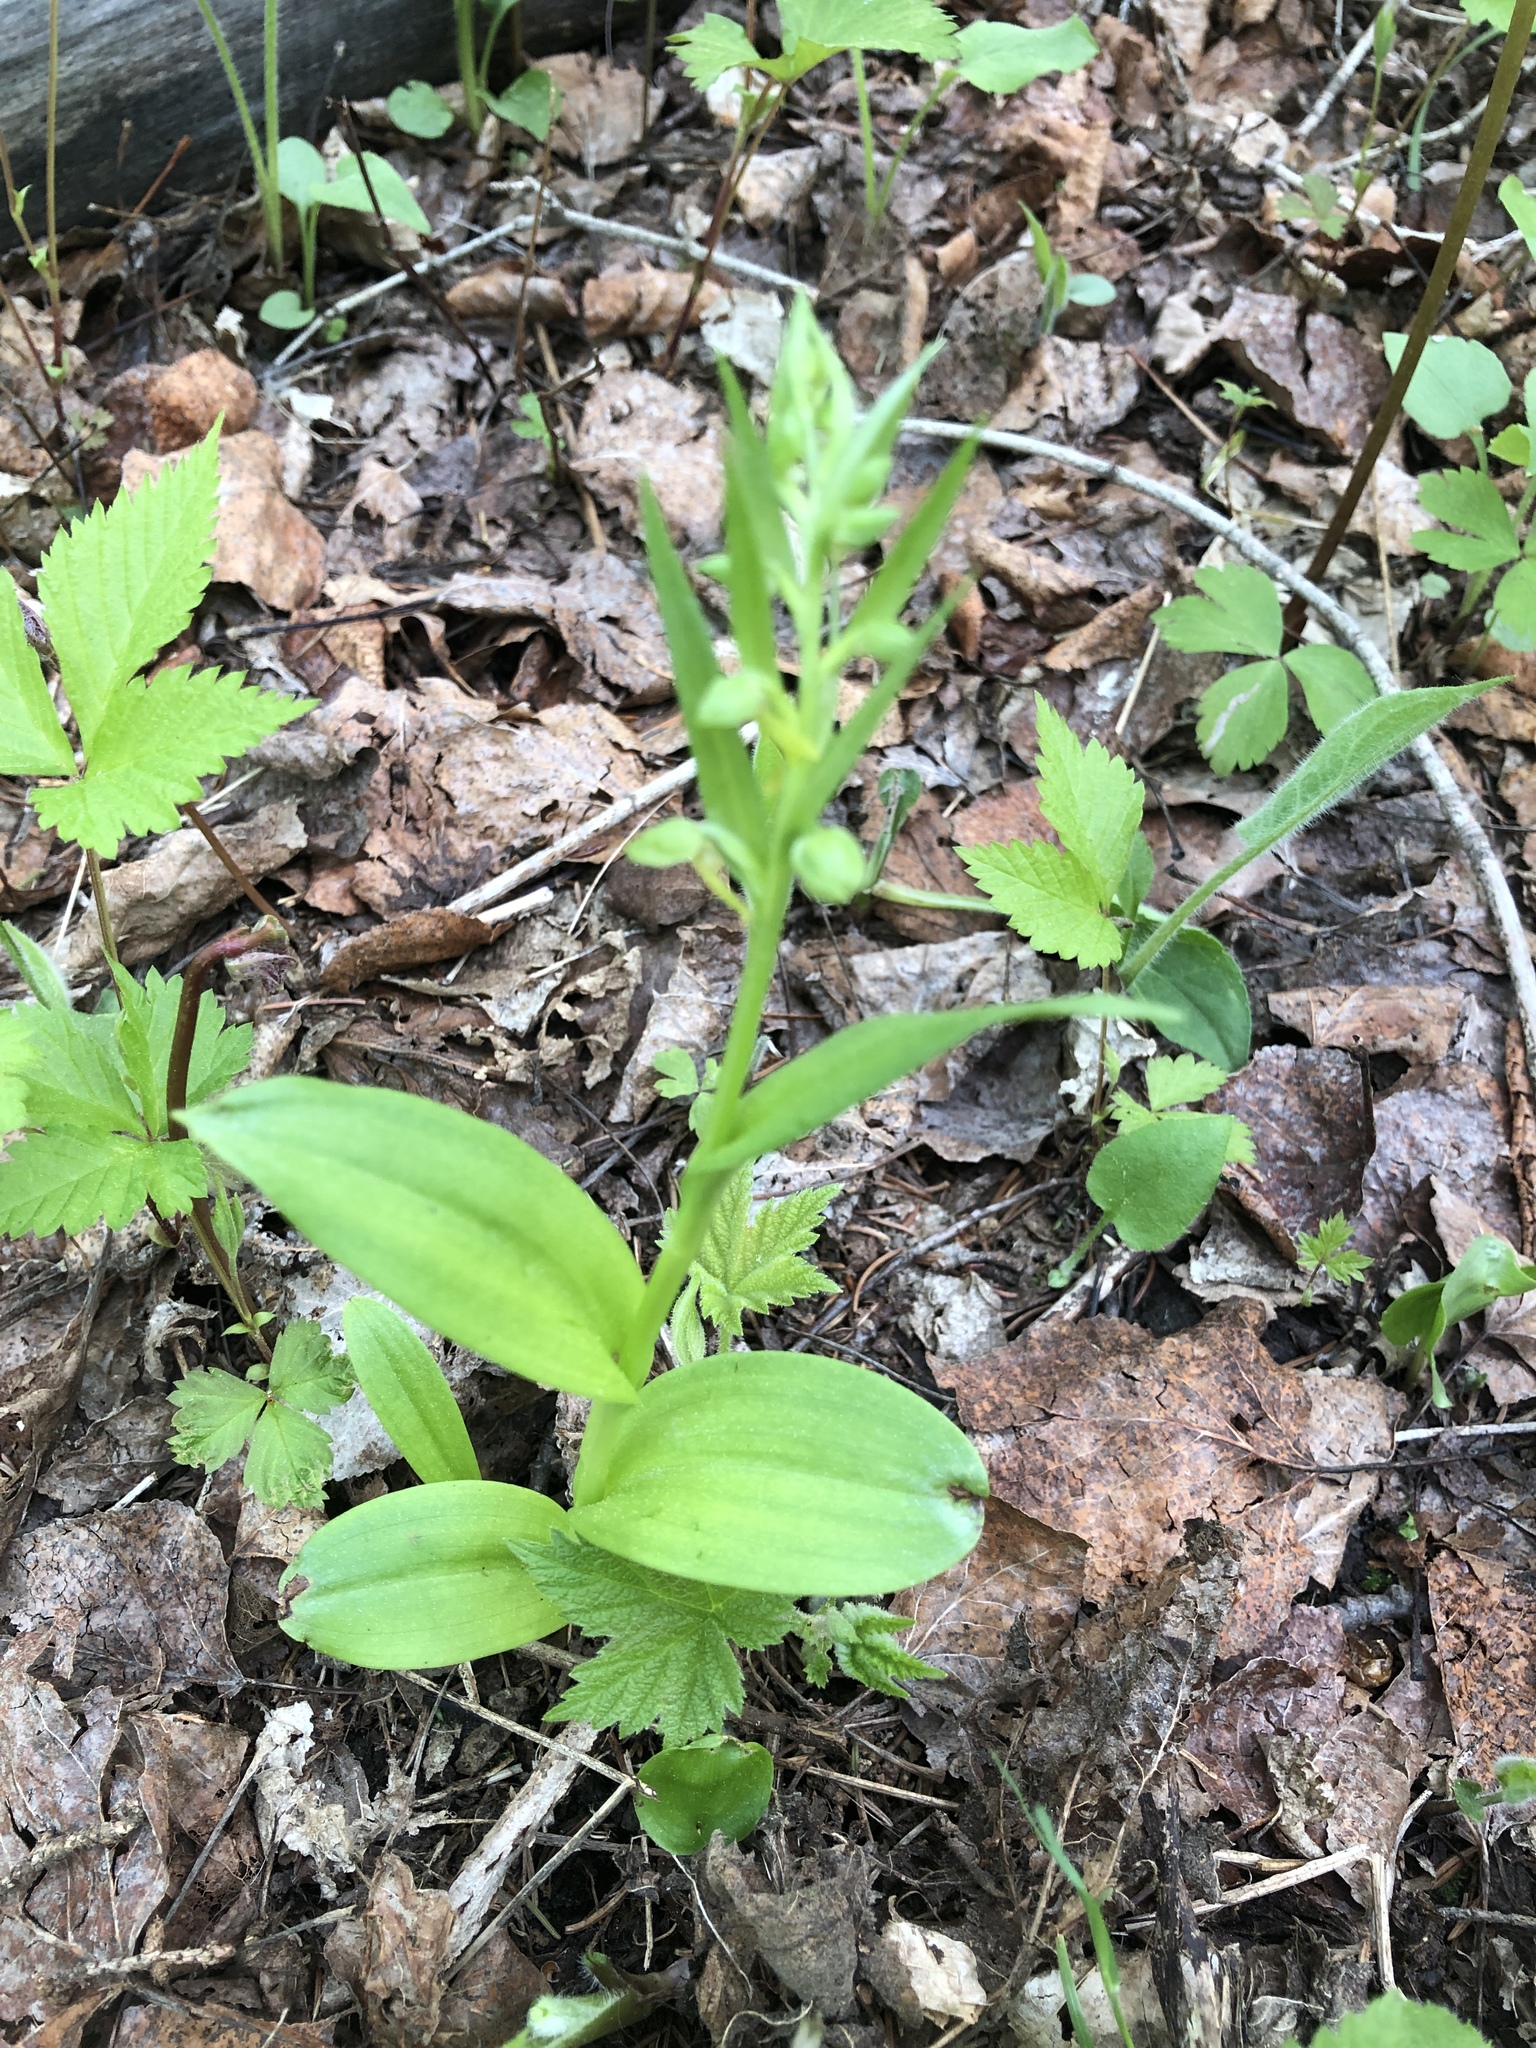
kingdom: Plantae
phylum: Tracheophyta
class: Liliopsida
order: Asparagales
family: Orchidaceae
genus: Dactylorhiza
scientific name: Dactylorhiza viridis
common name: Longbract frog orchid
